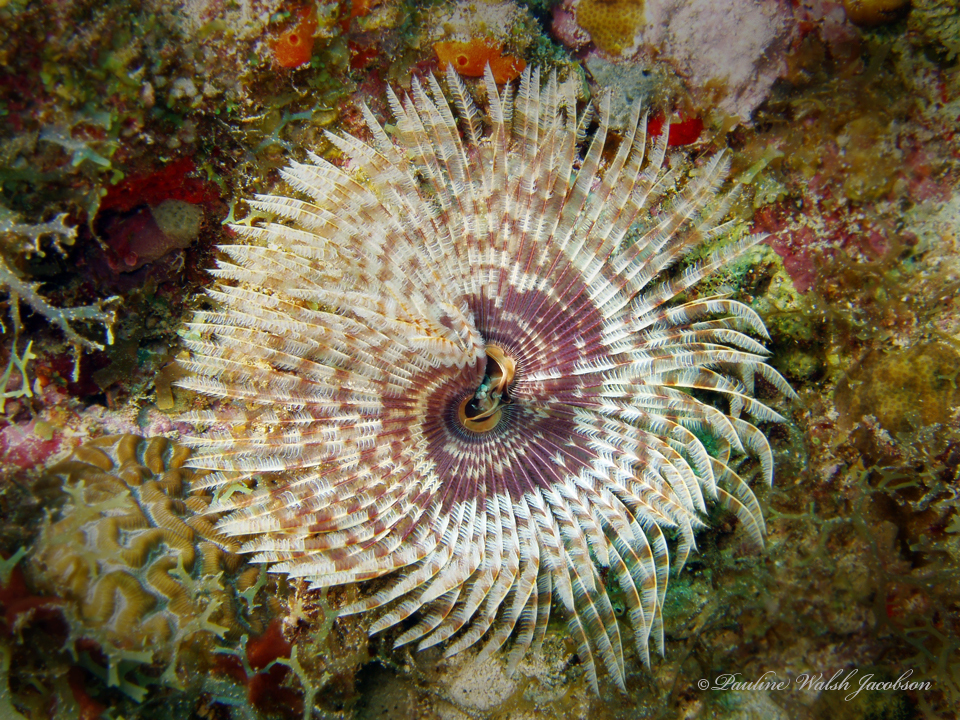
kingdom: Animalia
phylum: Annelida
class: Polychaeta
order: Sabellida
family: Sabellidae
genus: Sabellastarte
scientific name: Sabellastarte magnifica
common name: Giant feather-duster worm
